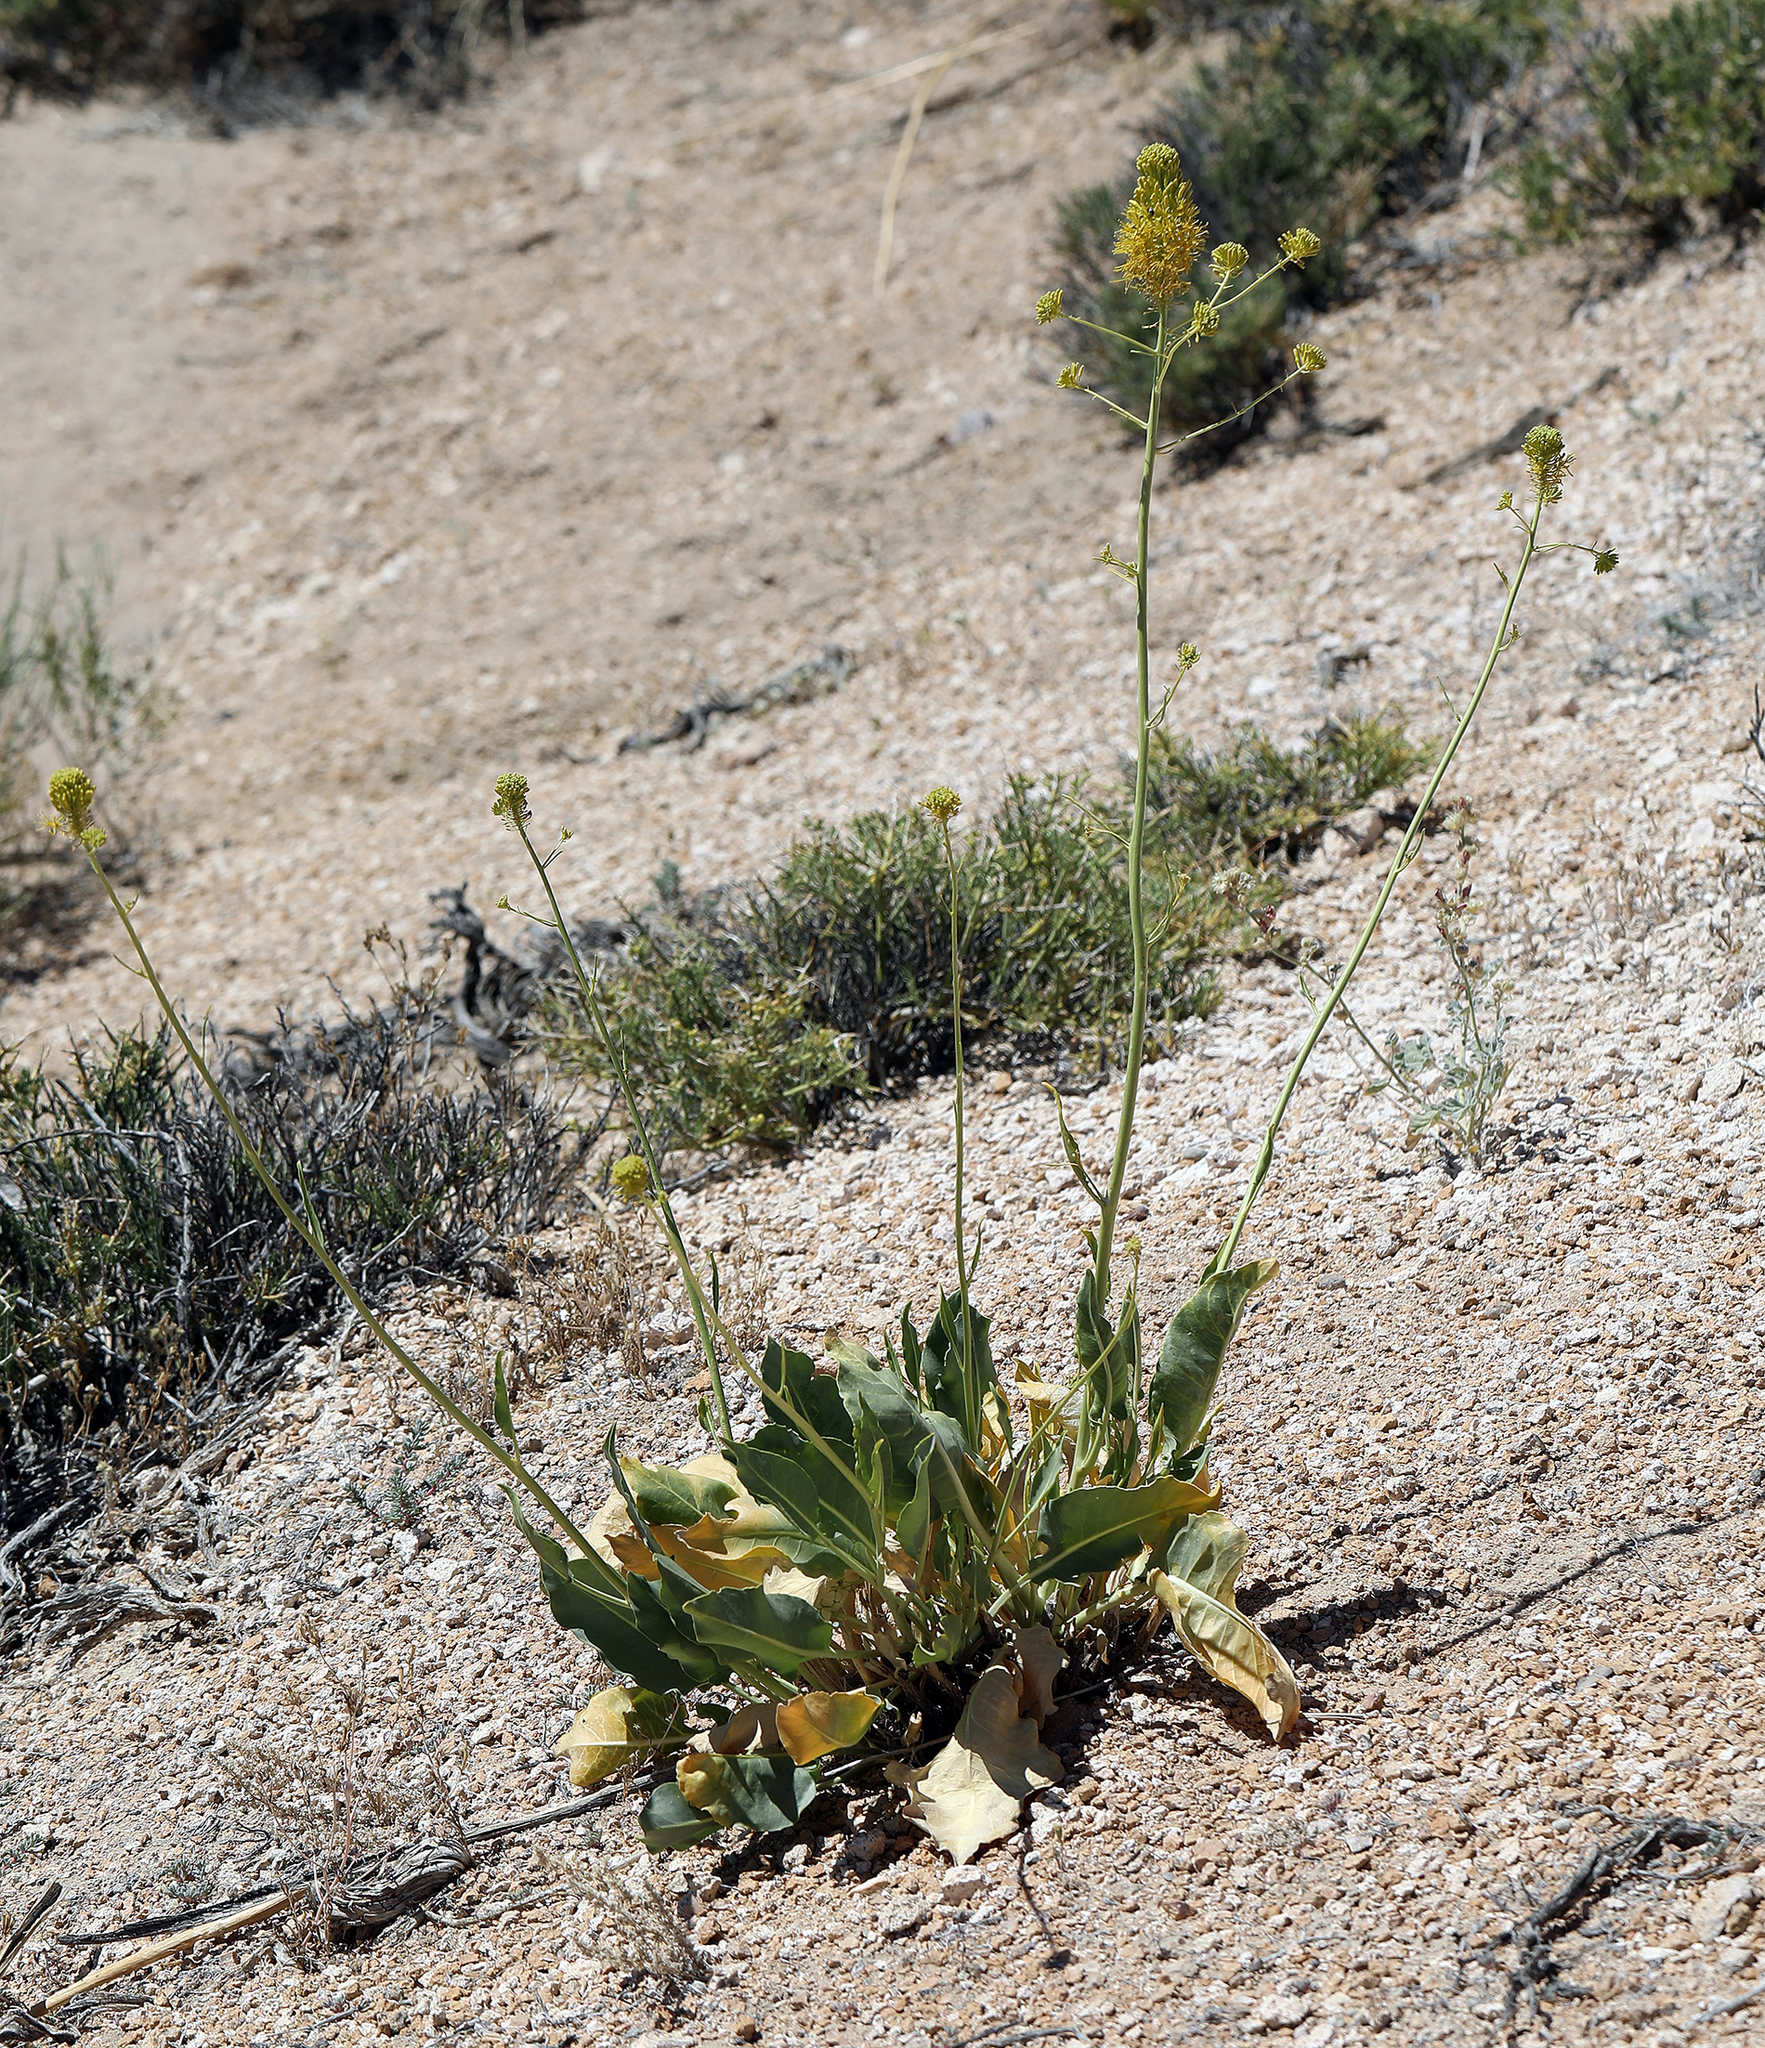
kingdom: Plantae
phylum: Tracheophyta
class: Magnoliopsida
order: Brassicales
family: Brassicaceae
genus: Stanleya
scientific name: Stanleya elata
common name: Panamint prince's plume
